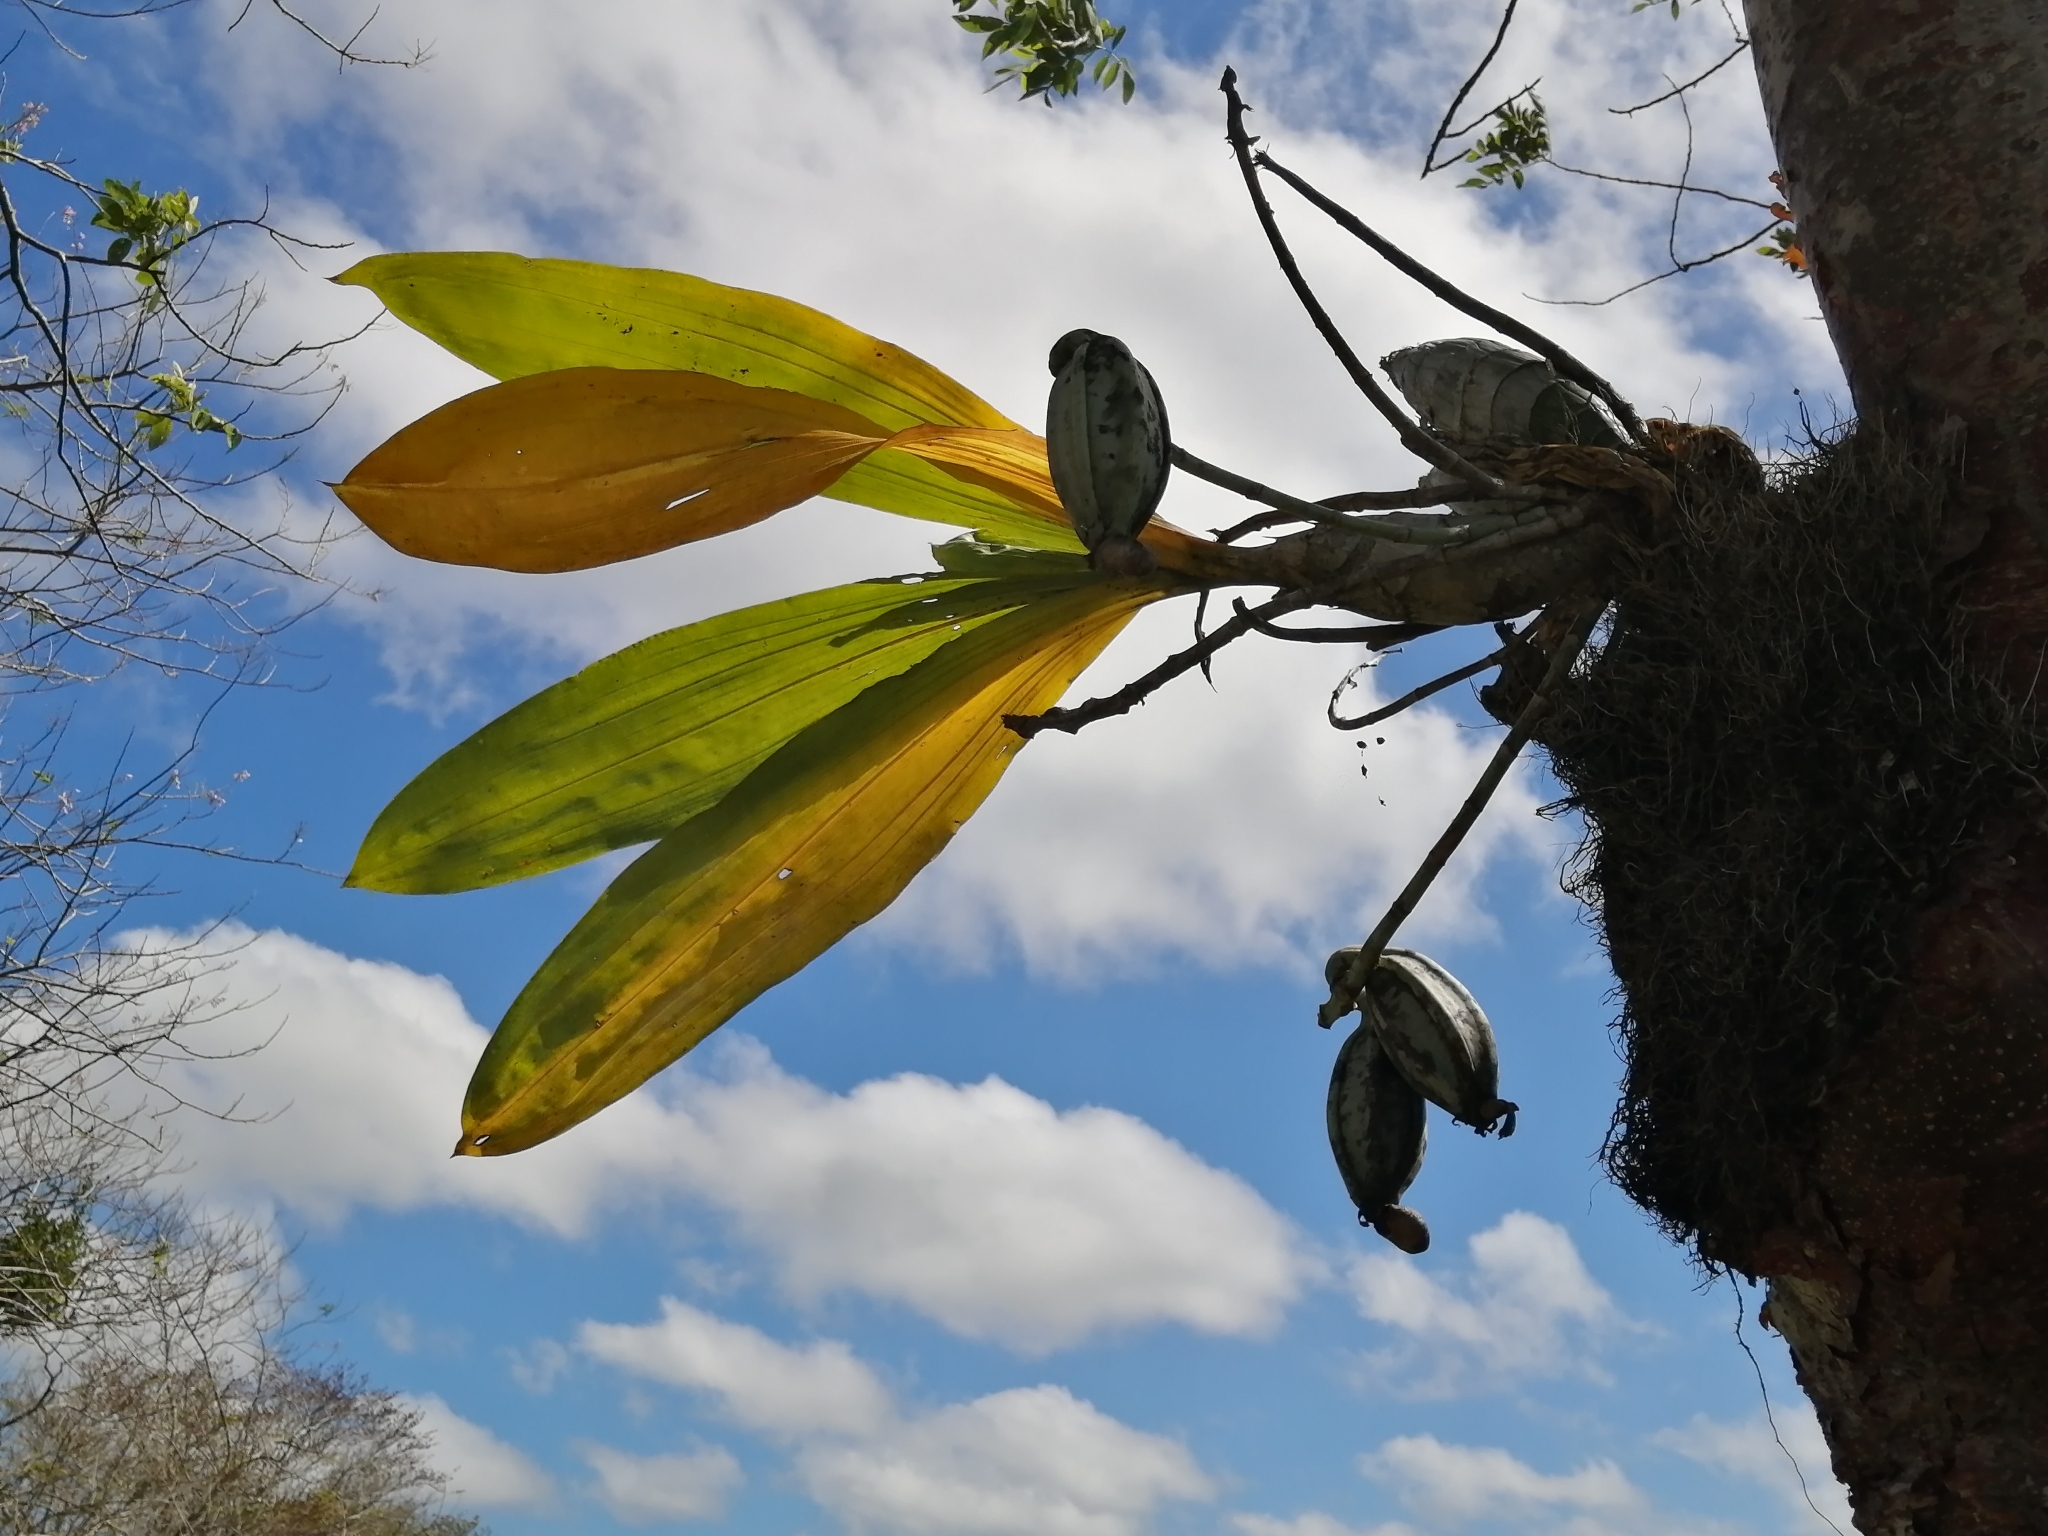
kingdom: Plantae
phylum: Tracheophyta
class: Liliopsida
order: Asparagales
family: Orchidaceae
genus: Catasetum
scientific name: Catasetum integerrimum
